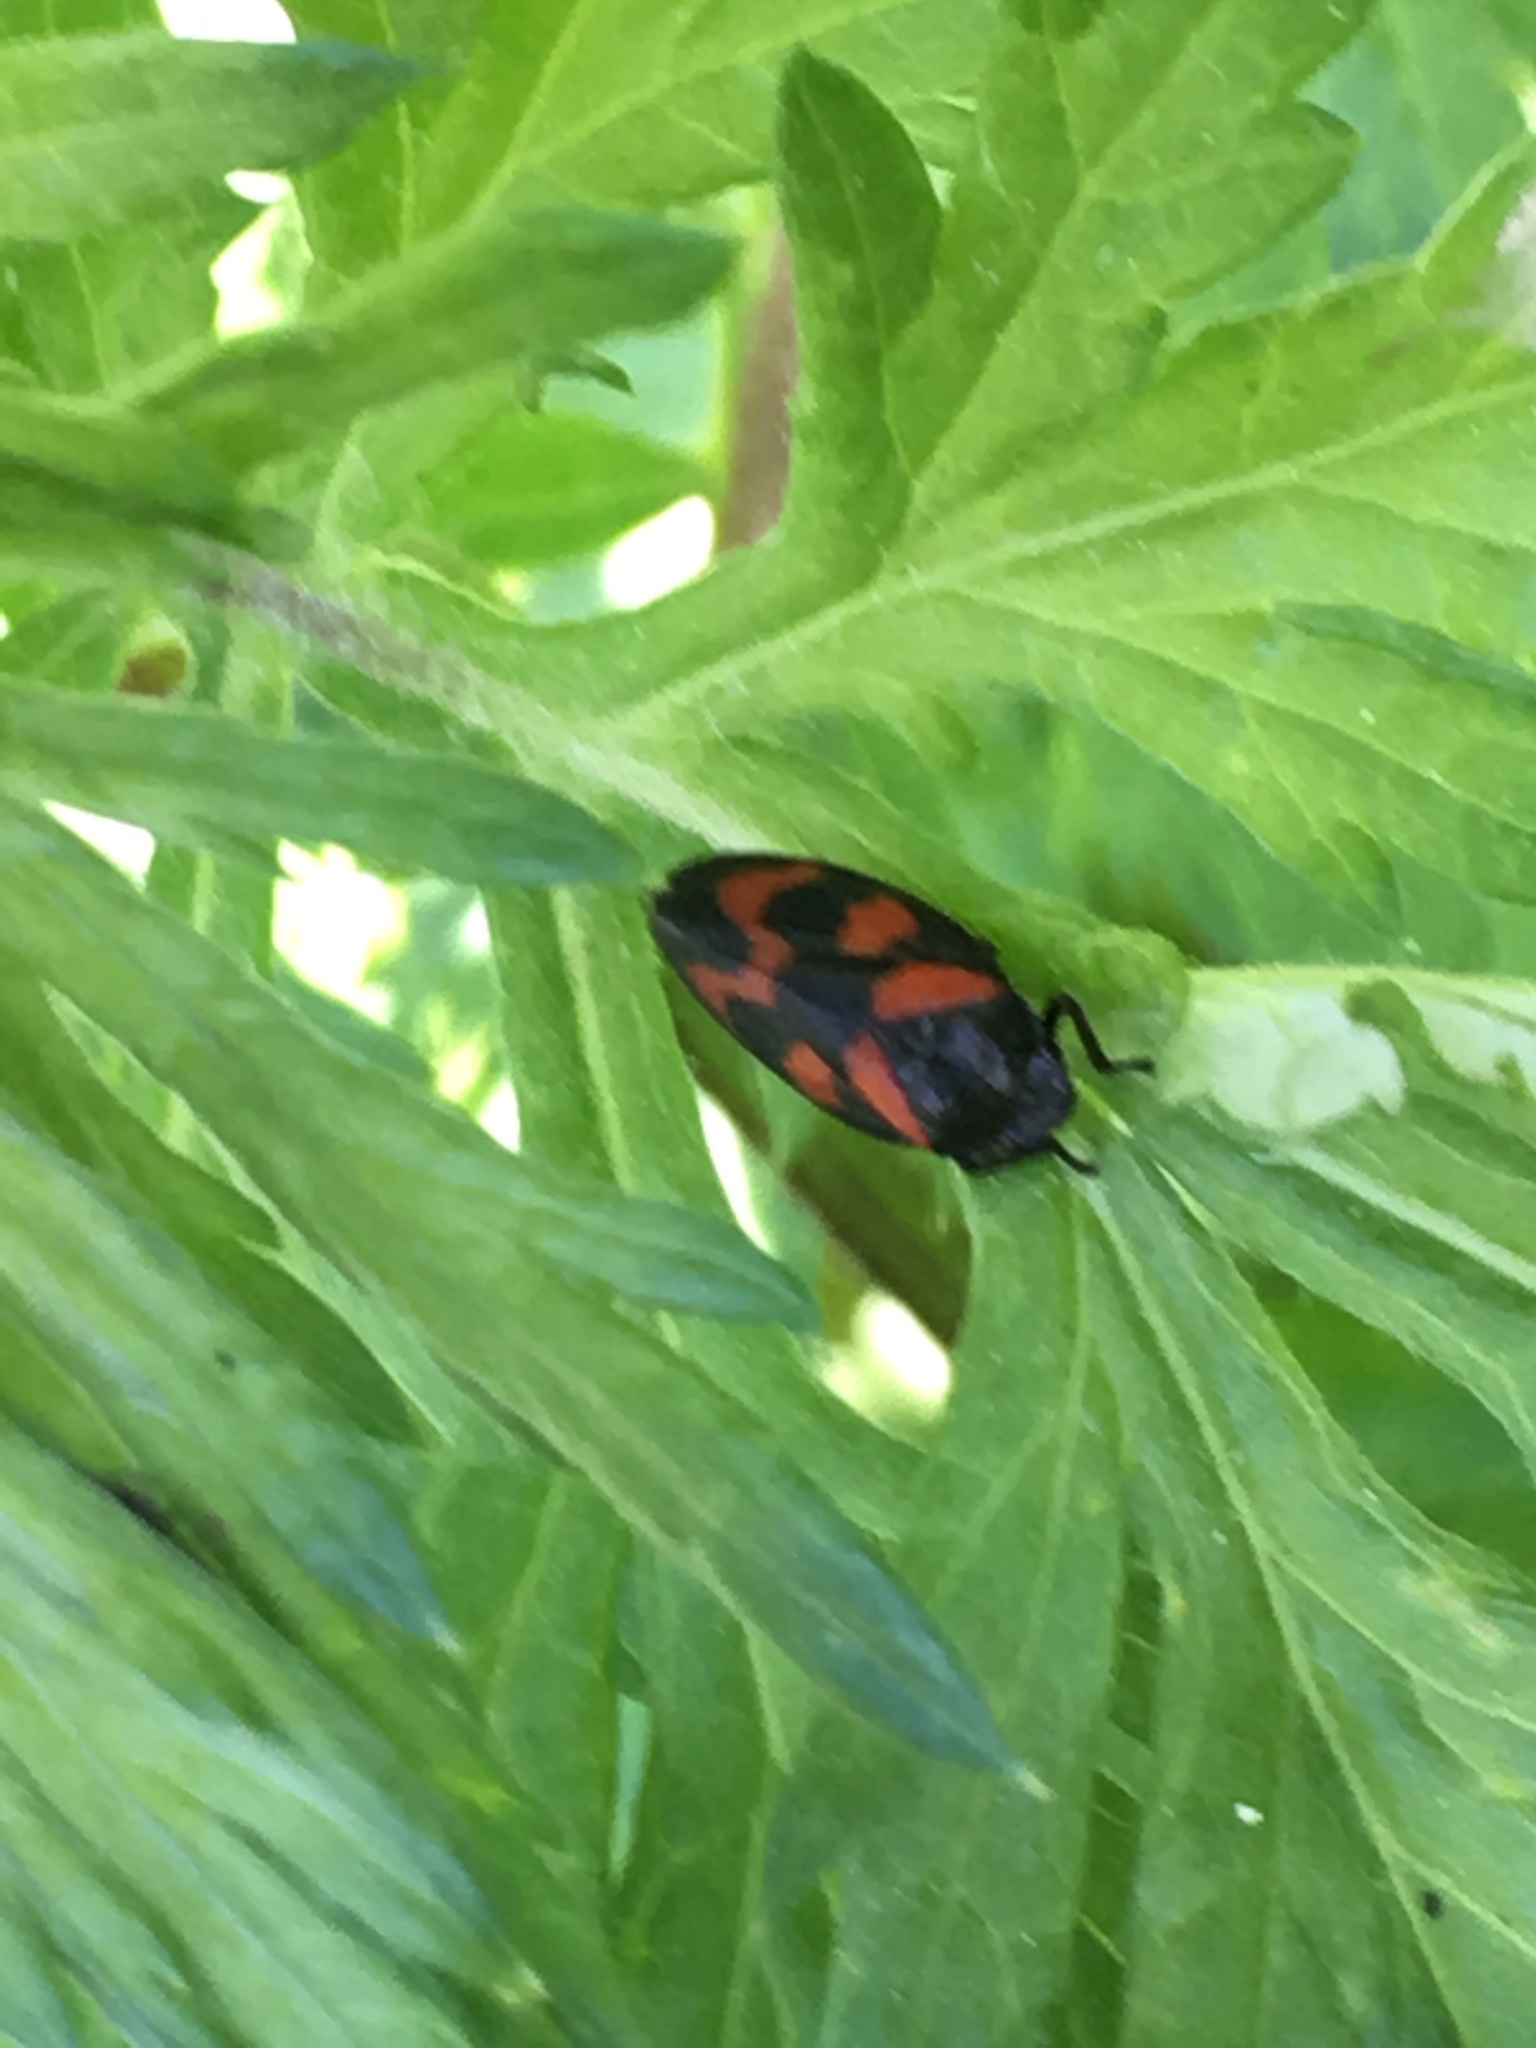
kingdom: Animalia
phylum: Arthropoda
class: Insecta
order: Hemiptera
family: Cercopidae
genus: Cercopis
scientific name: Cercopis vulnerata
